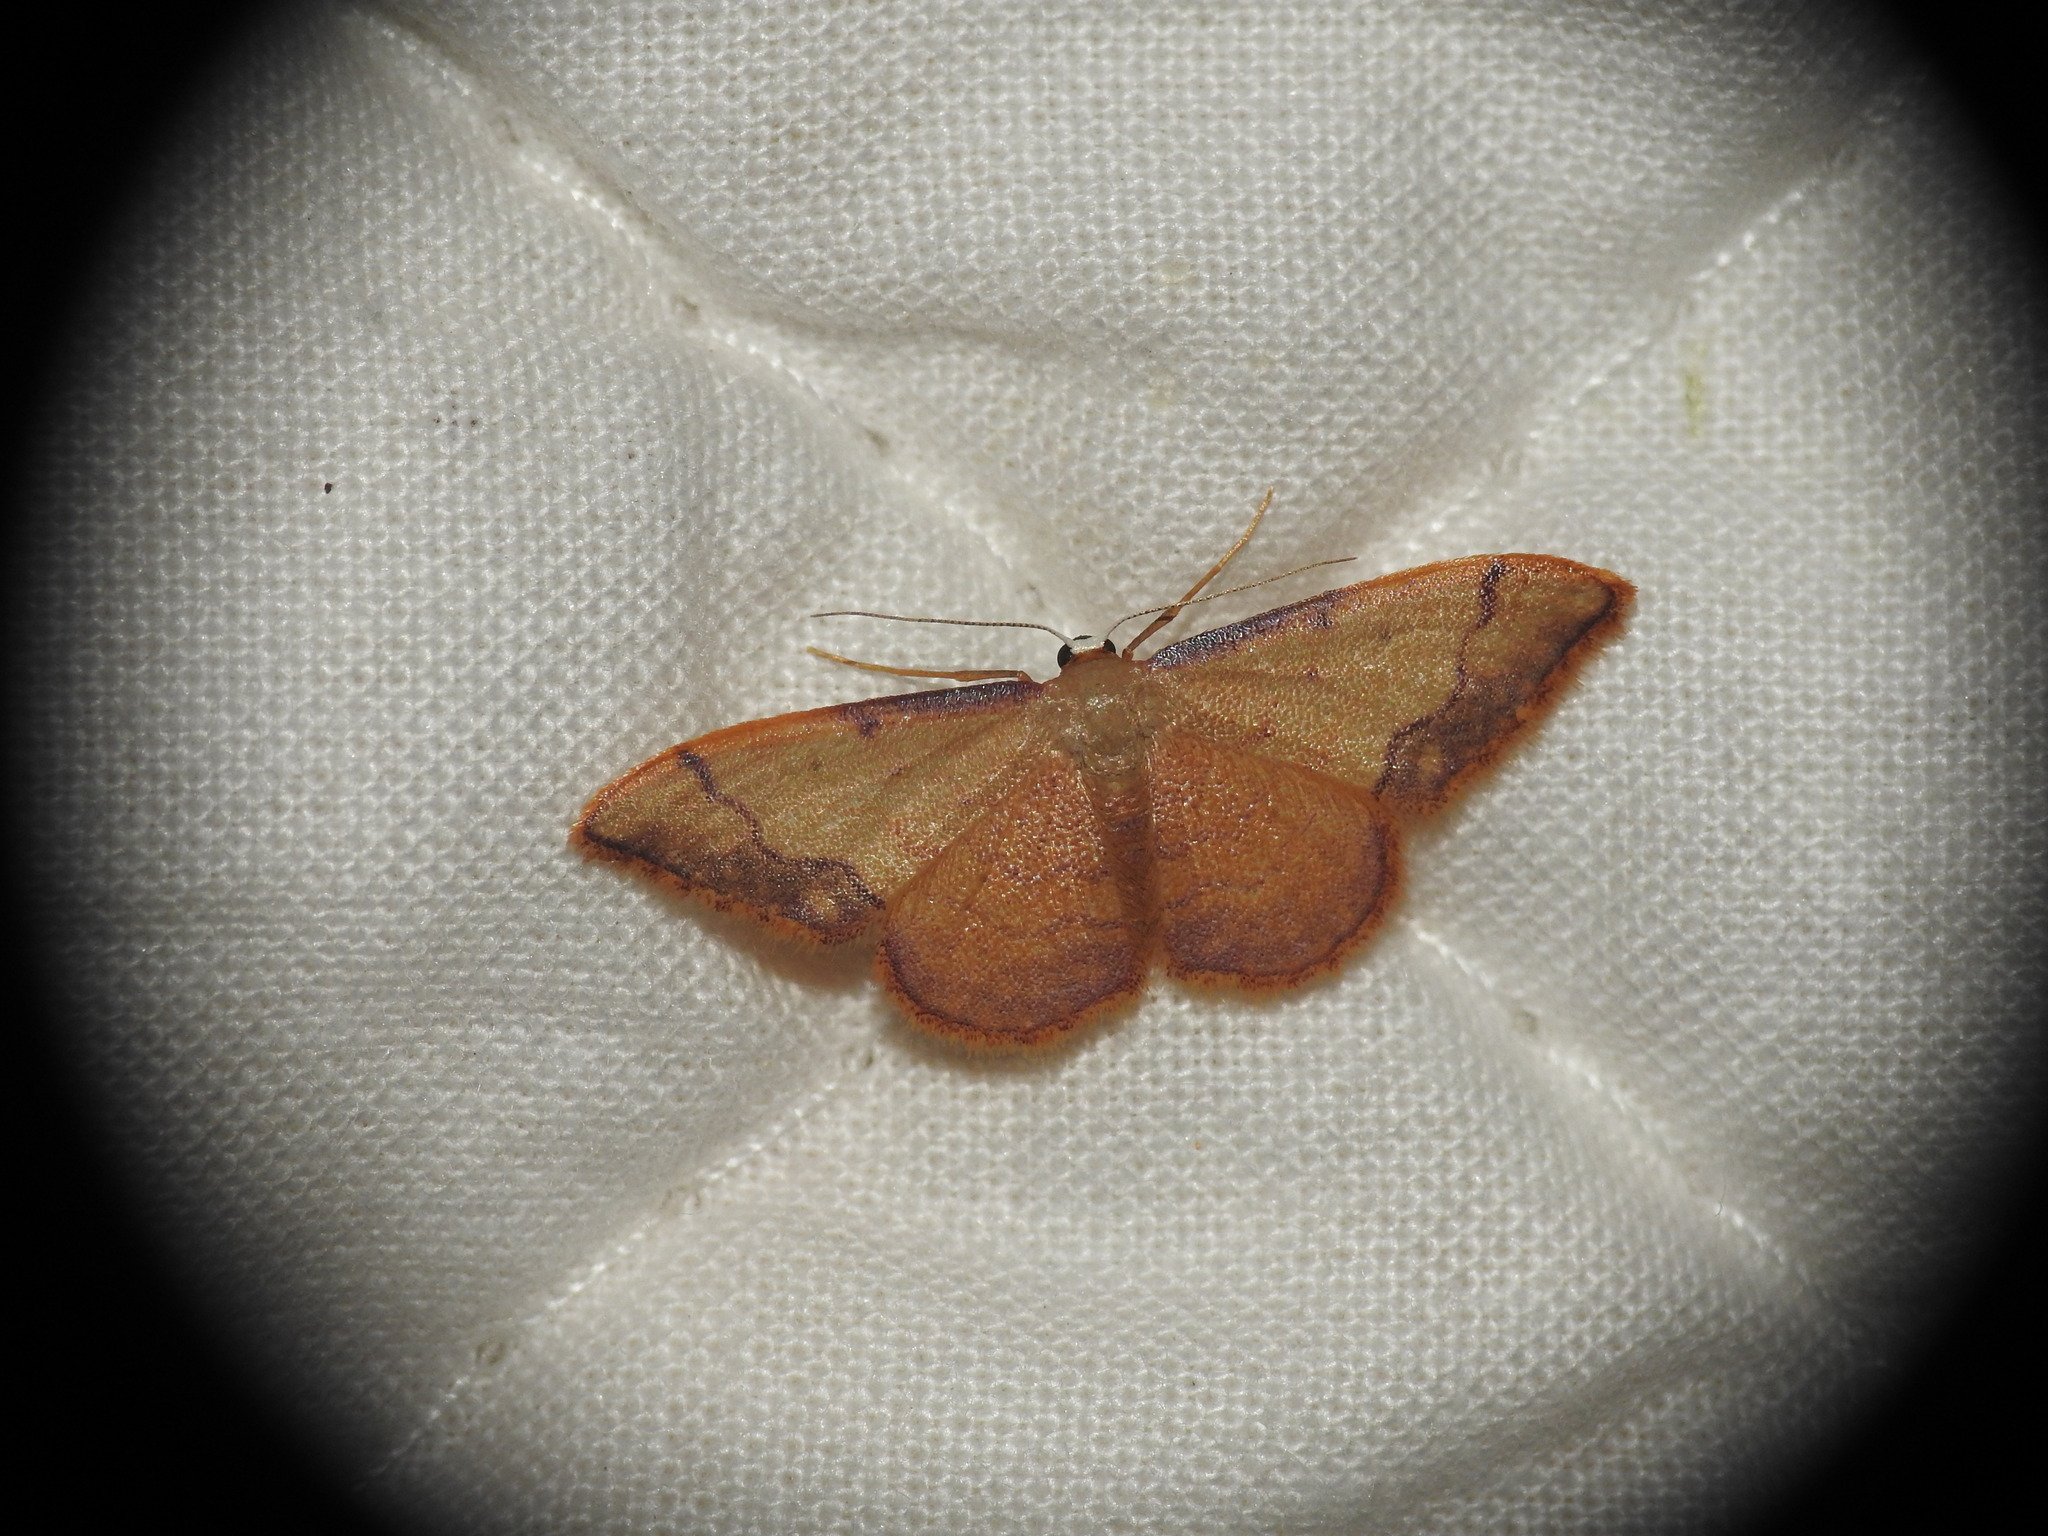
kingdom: Animalia
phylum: Arthropoda
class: Insecta
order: Lepidoptera
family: Geometridae
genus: Idaea
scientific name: Idaea ostrinaria
